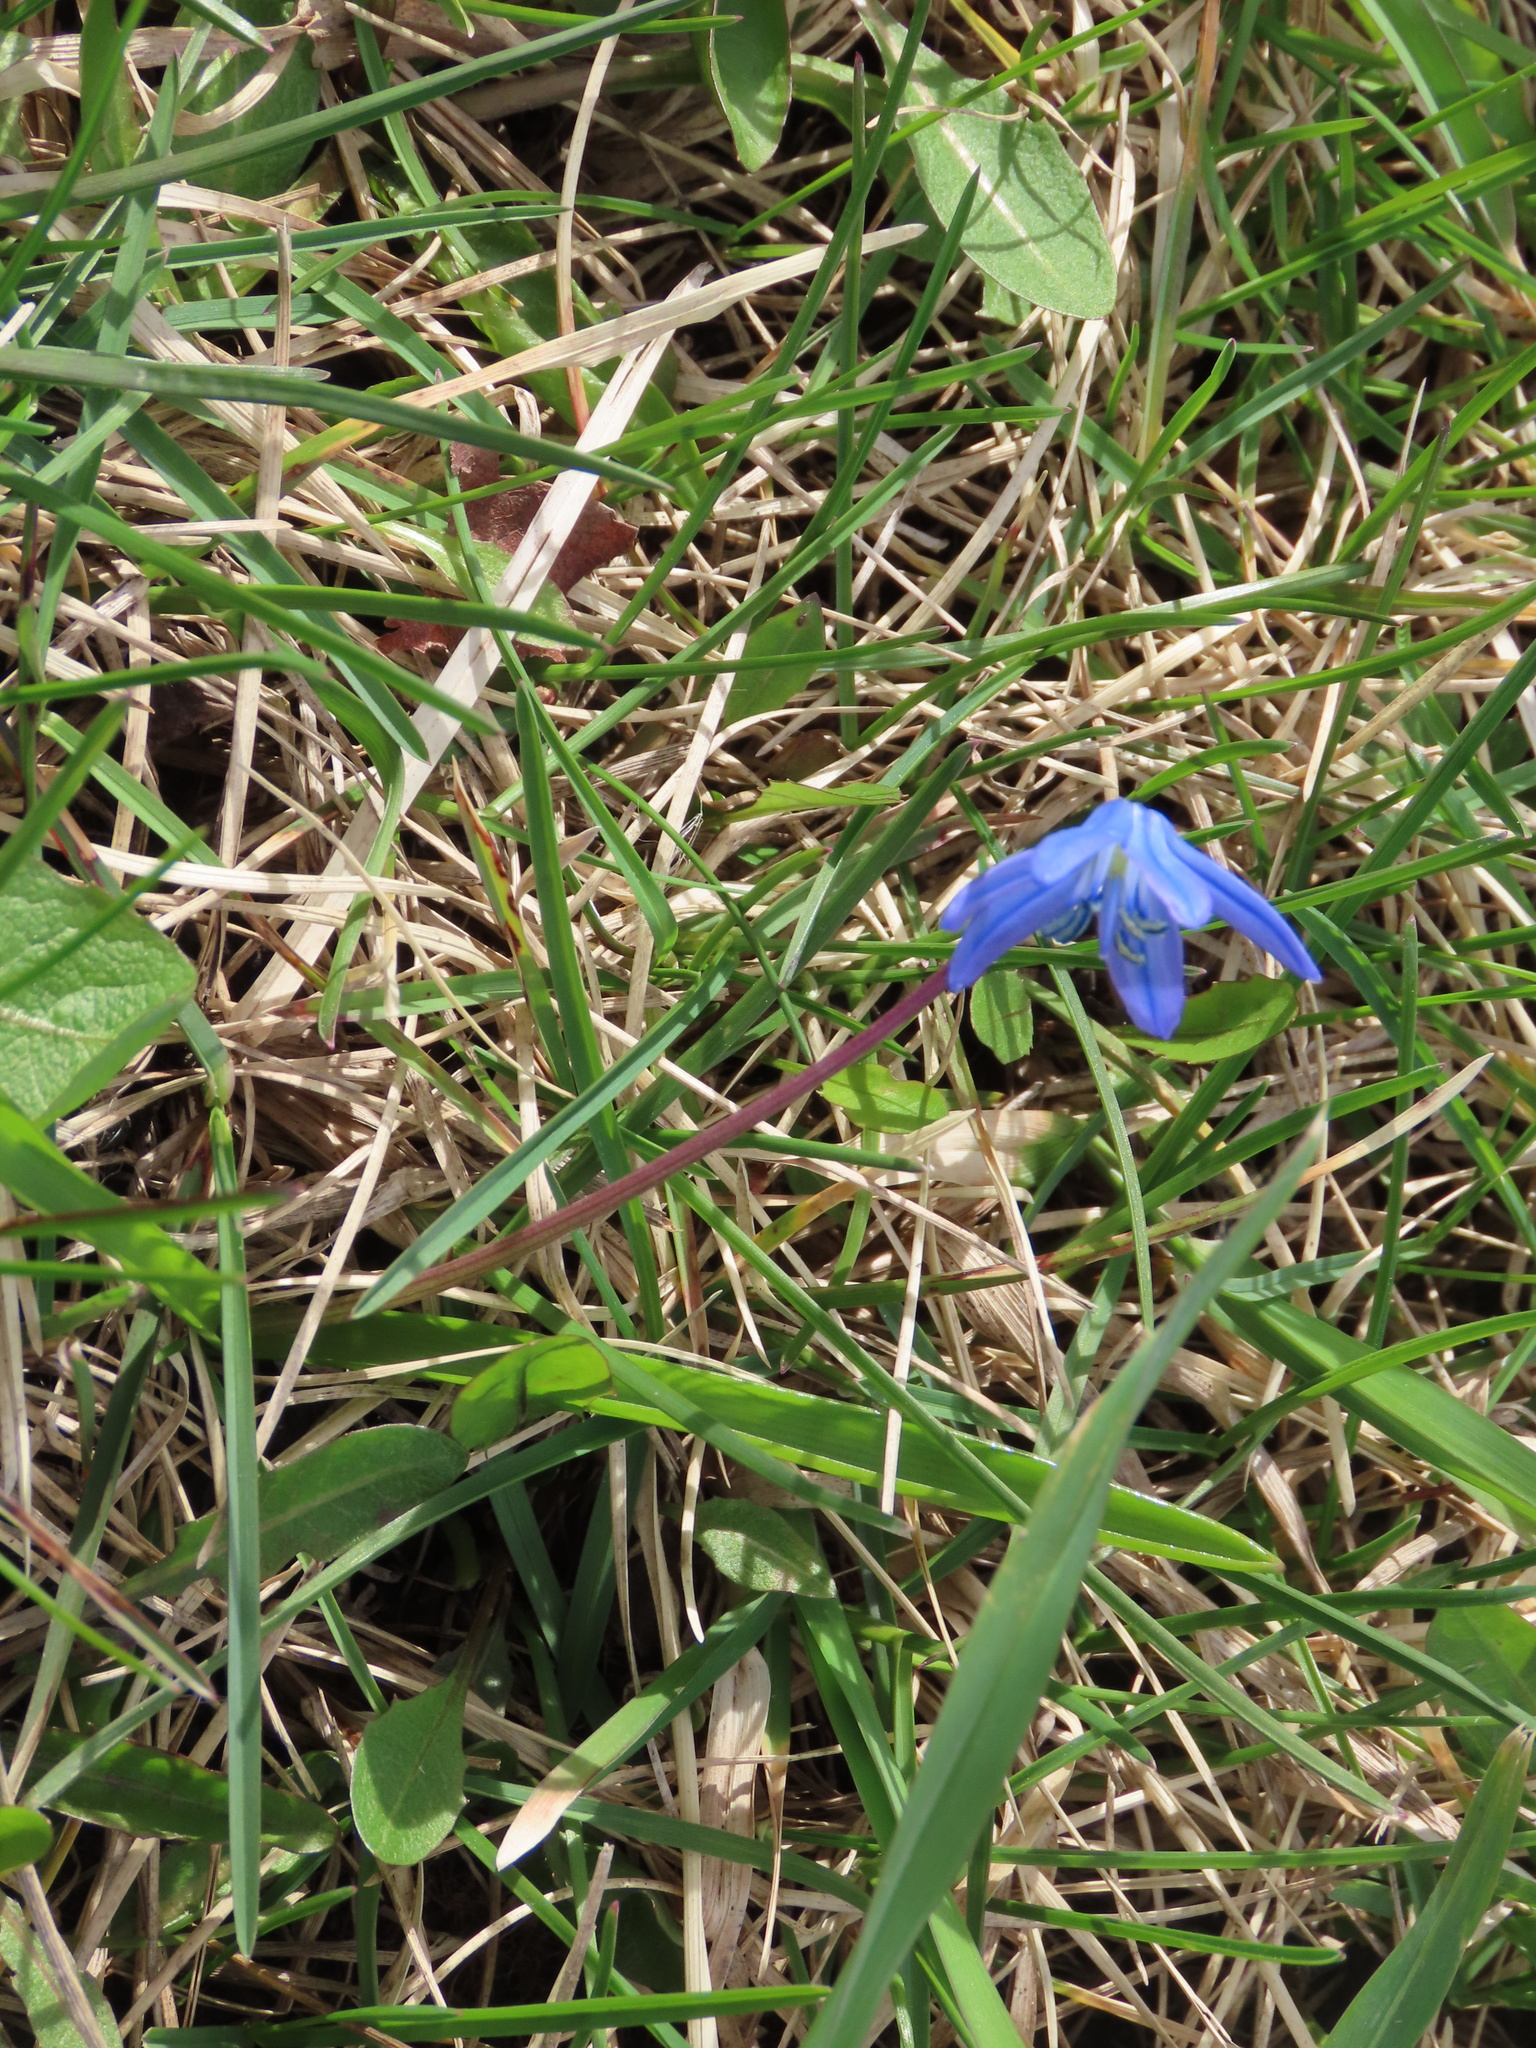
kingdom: Plantae
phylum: Tracheophyta
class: Liliopsida
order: Asparagales
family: Asparagaceae
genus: Scilla
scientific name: Scilla siberica
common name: Siberian squill
